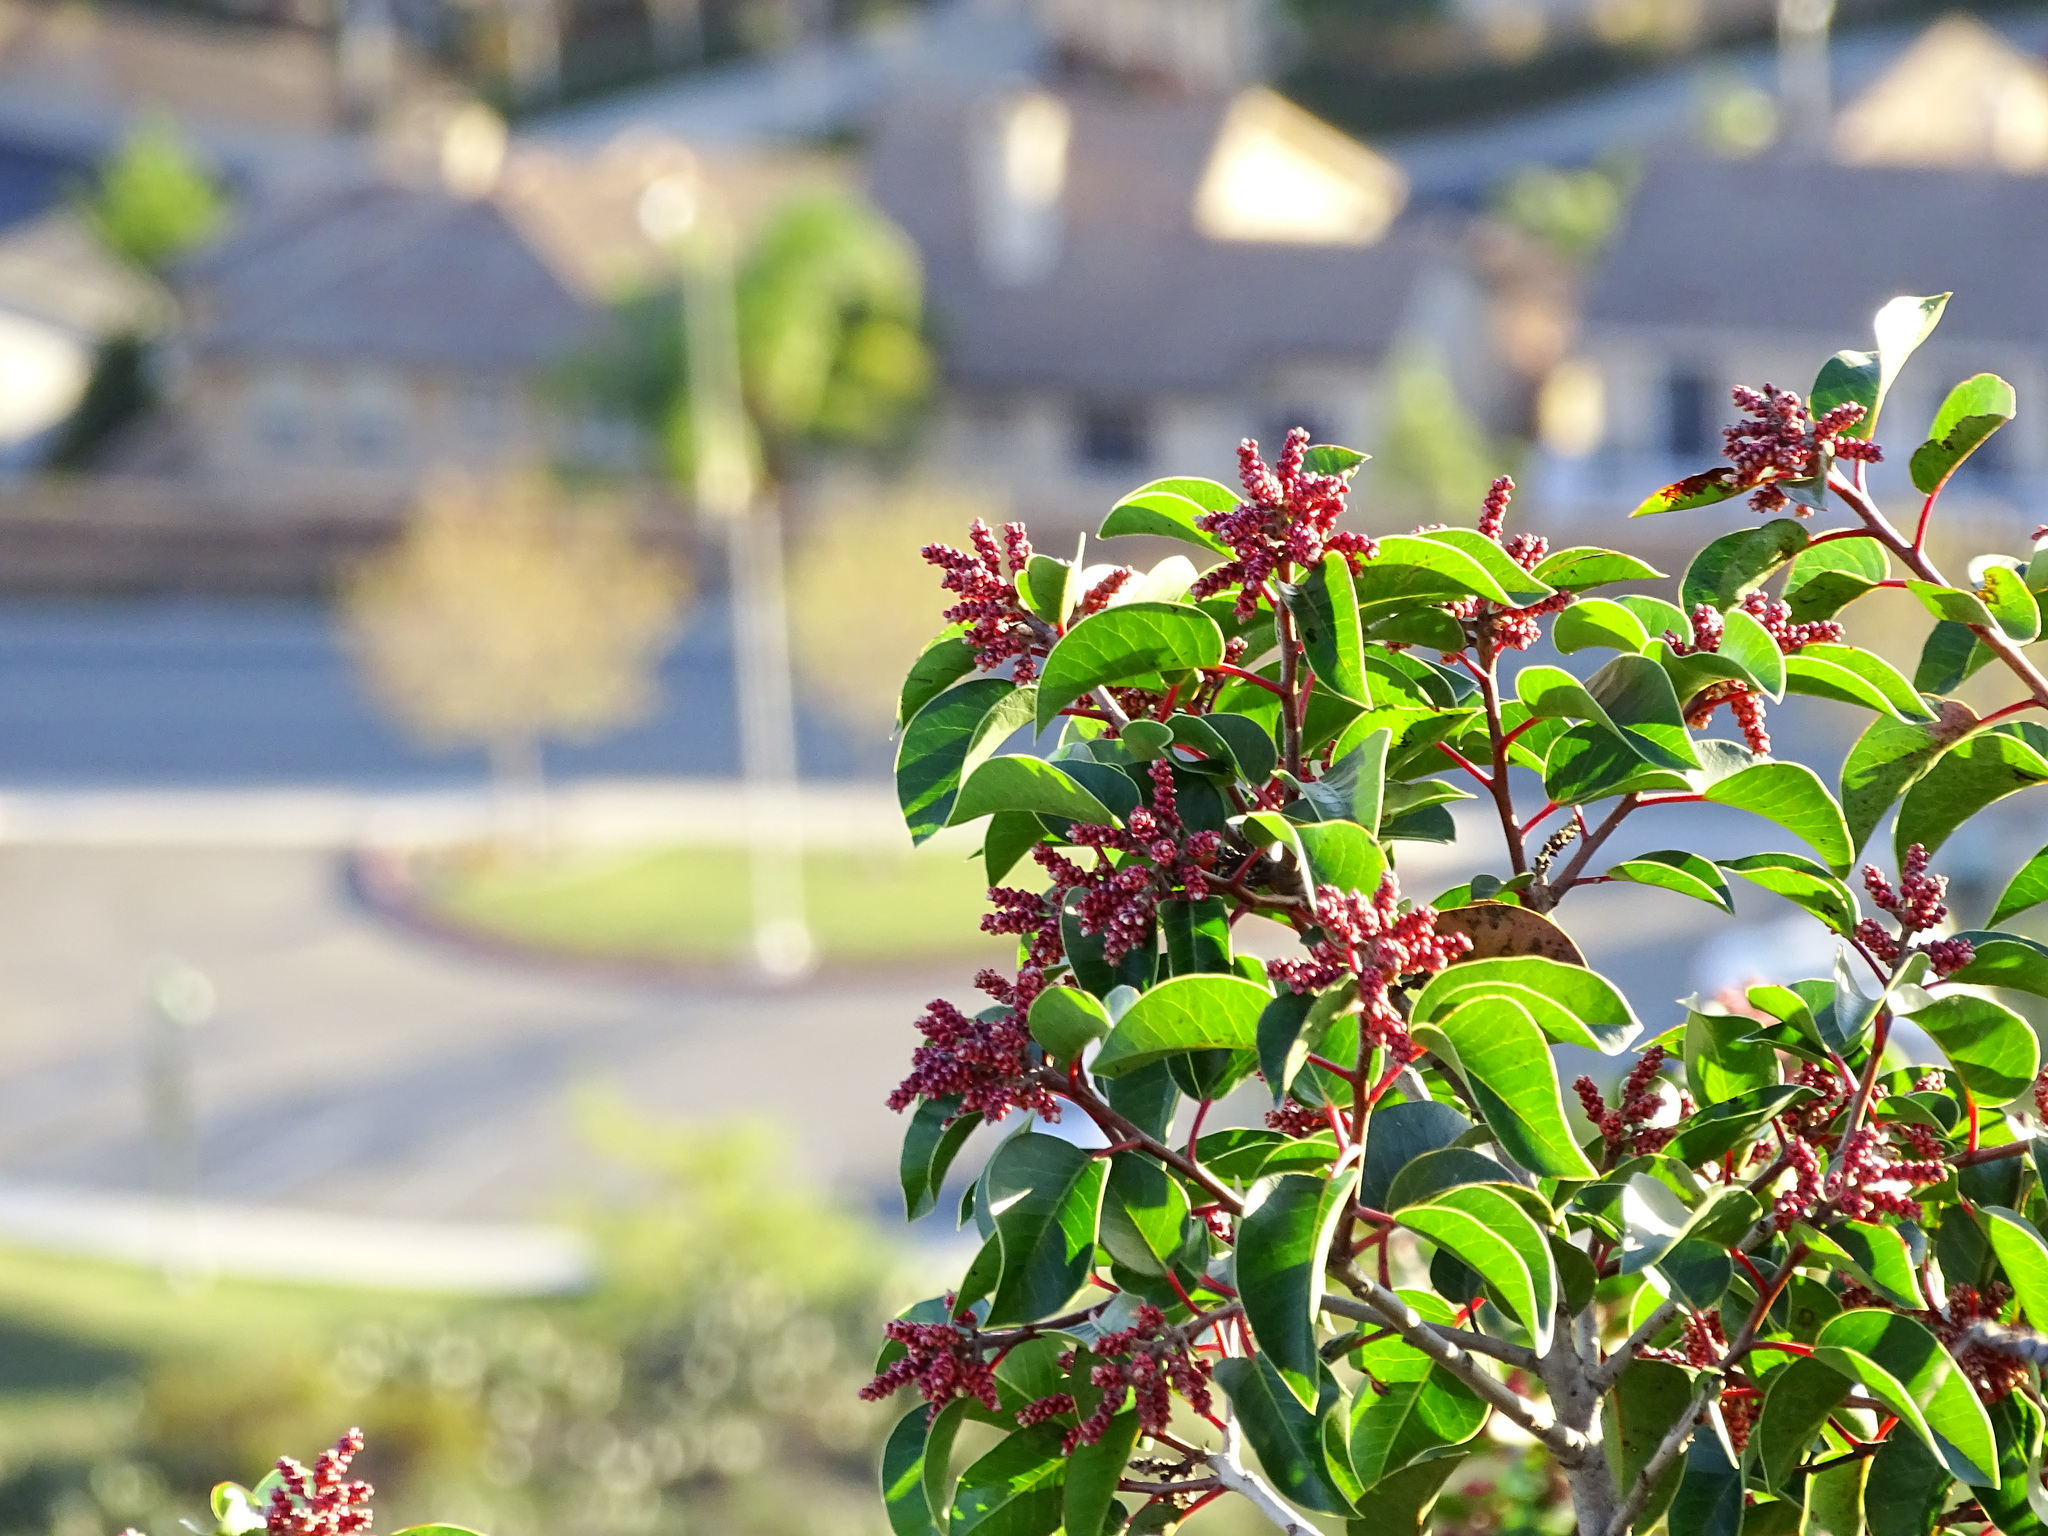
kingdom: Plantae
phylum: Tracheophyta
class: Magnoliopsida
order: Sapindales
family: Anacardiaceae
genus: Rhus
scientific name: Rhus ovata
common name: Sugar sumac
